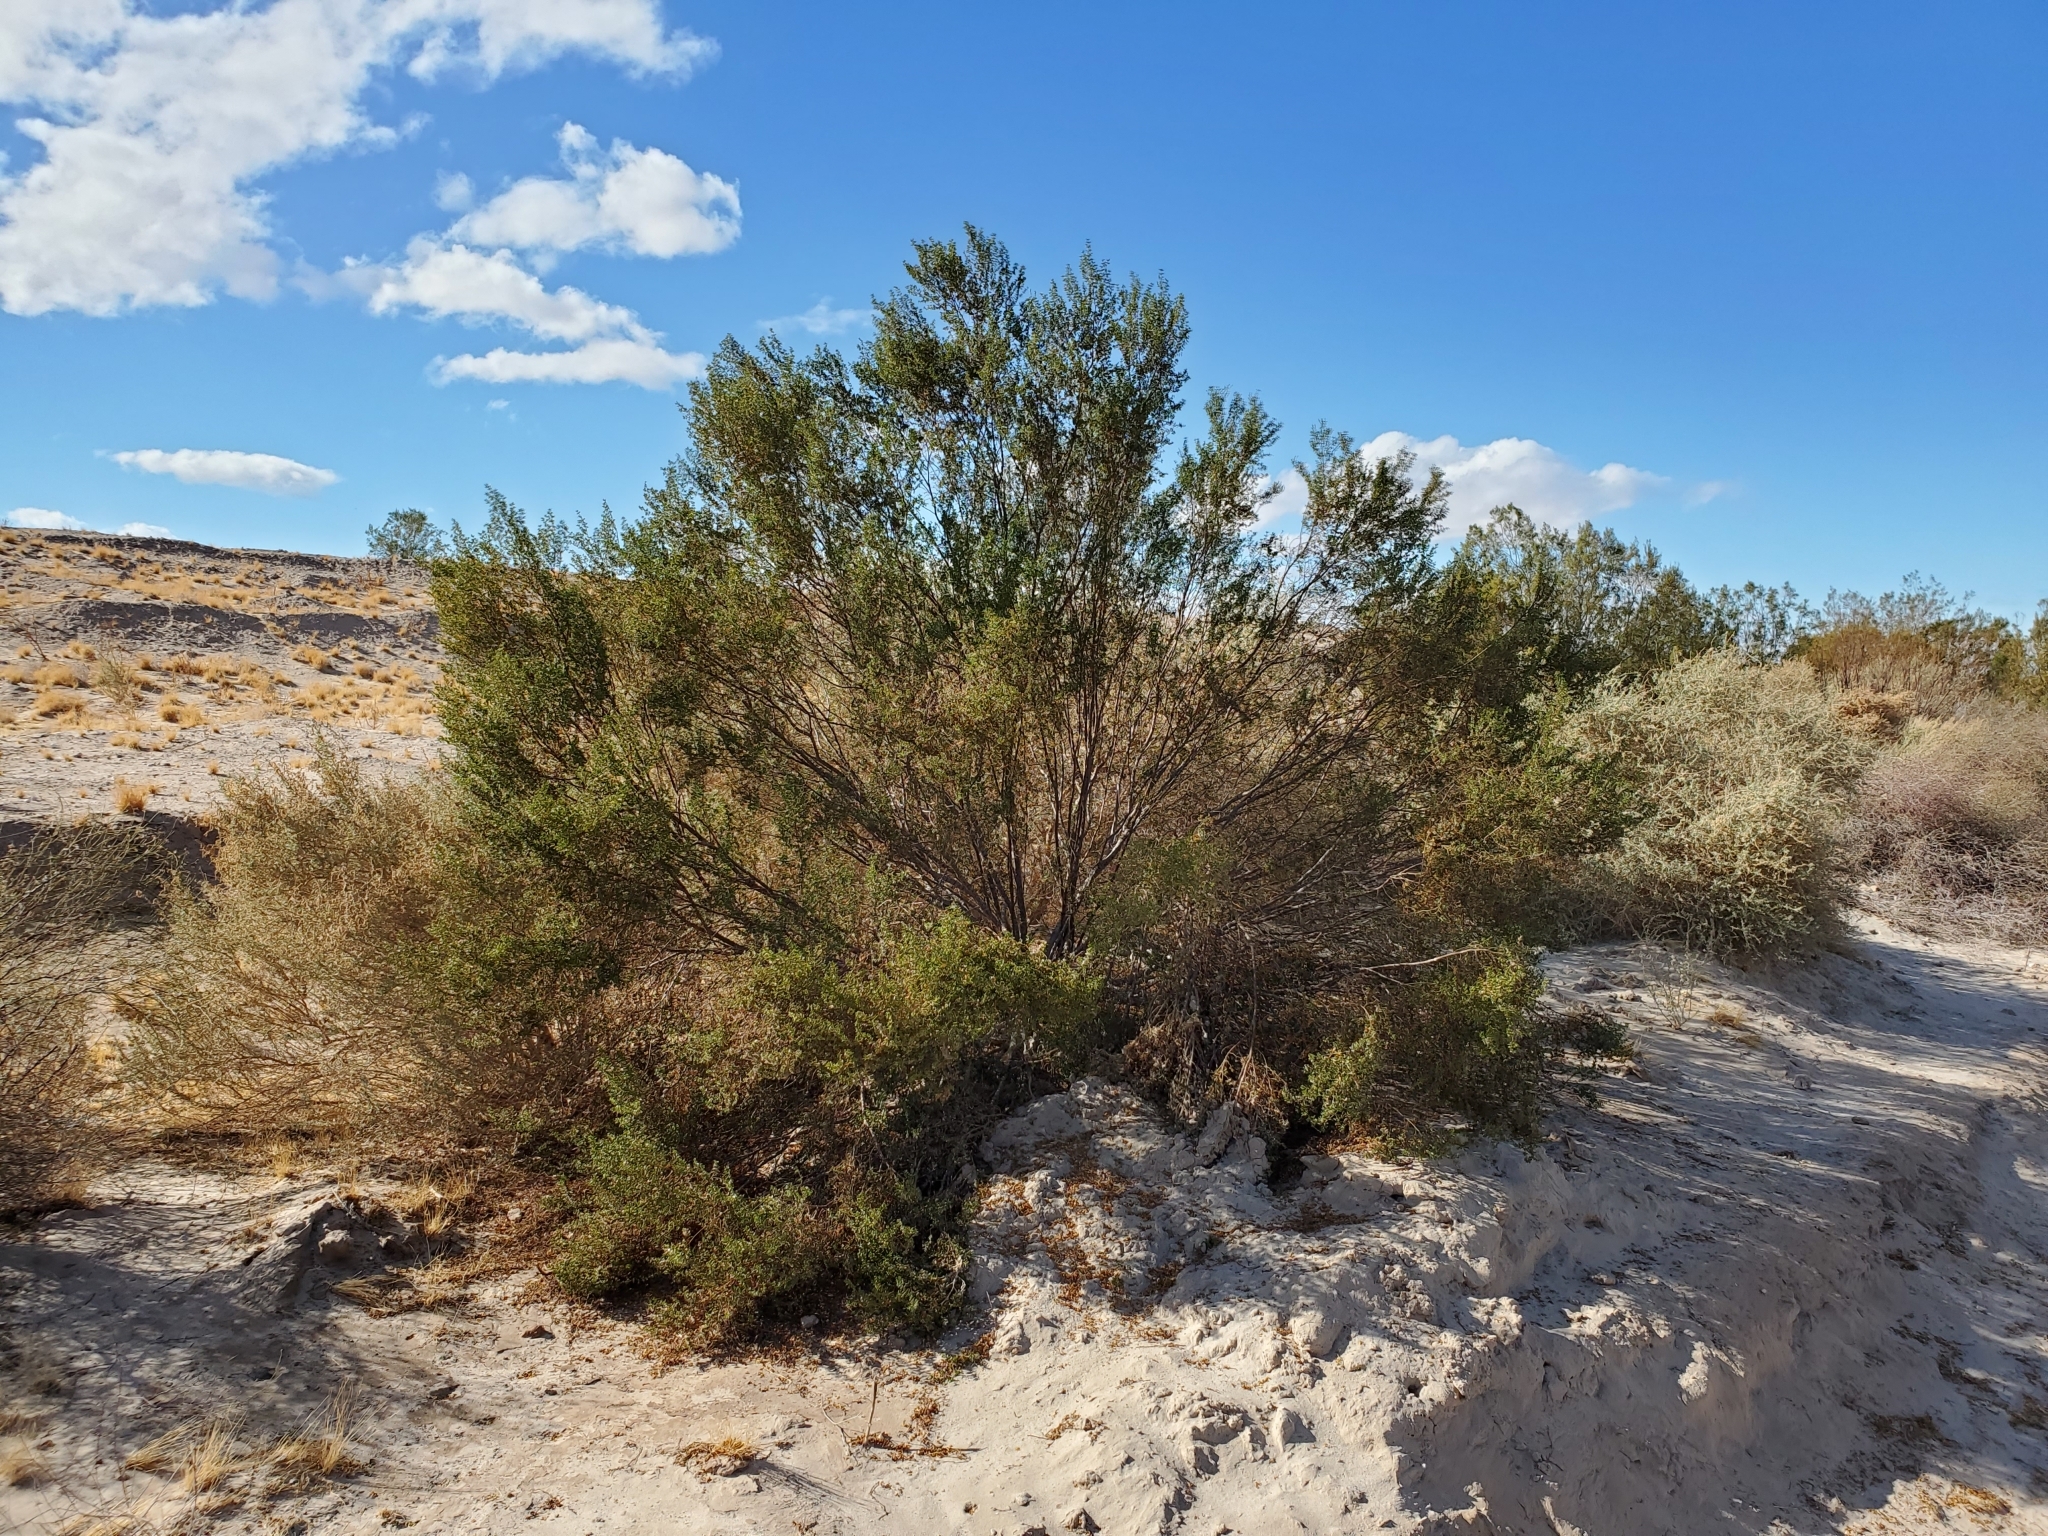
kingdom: Plantae
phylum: Tracheophyta
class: Magnoliopsida
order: Zygophyllales
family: Zygophyllaceae
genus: Larrea
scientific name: Larrea tridentata
